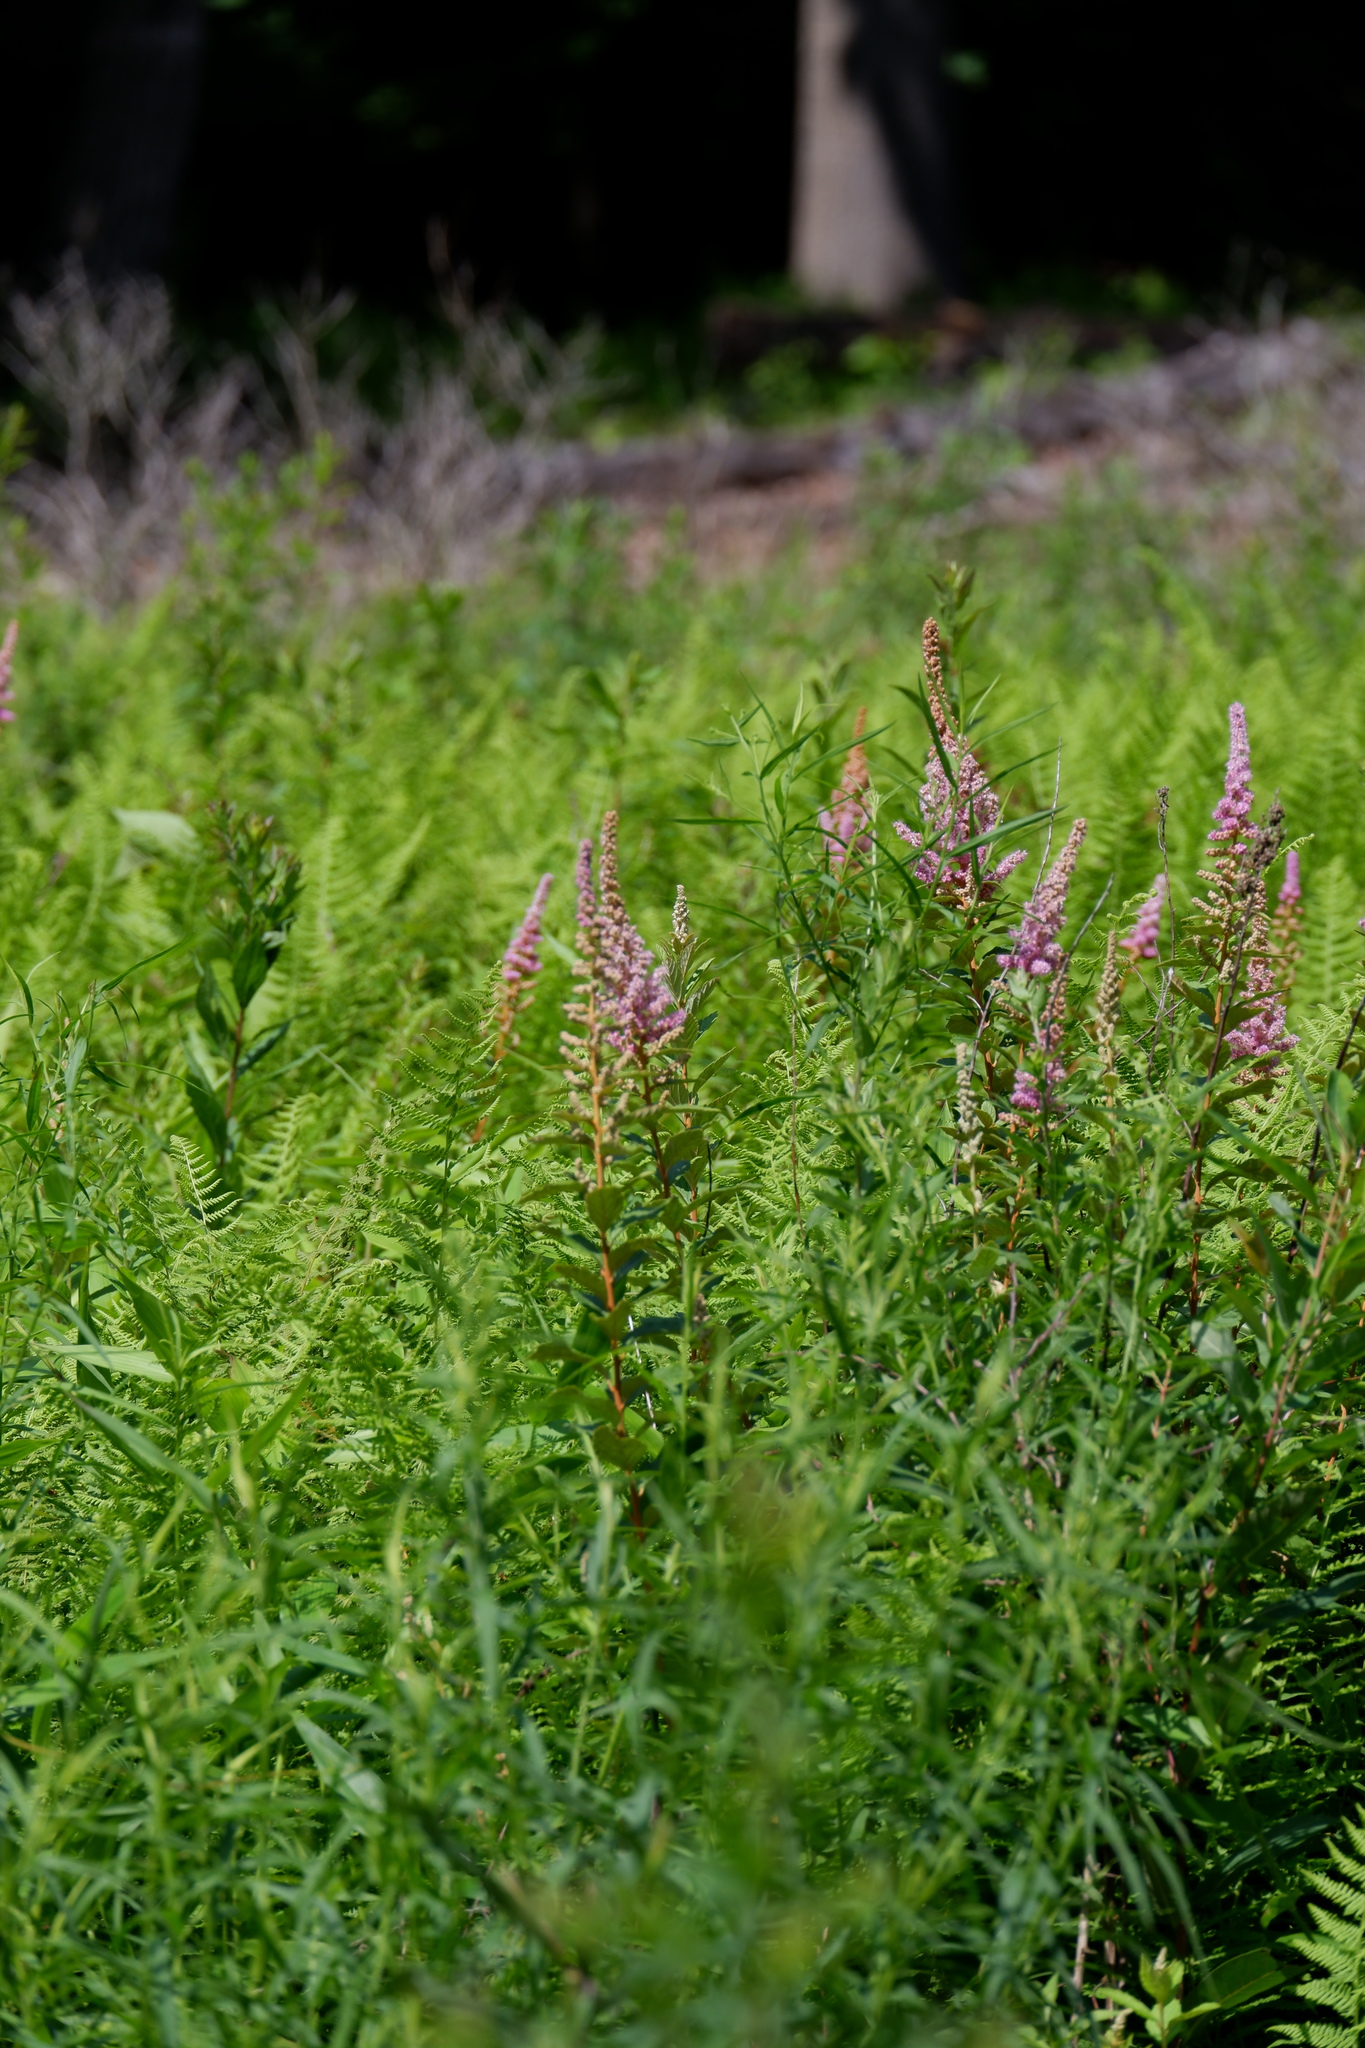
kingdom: Plantae
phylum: Tracheophyta
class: Magnoliopsida
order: Rosales
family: Rosaceae
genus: Spiraea
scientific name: Spiraea tomentosa
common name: Hardhack
